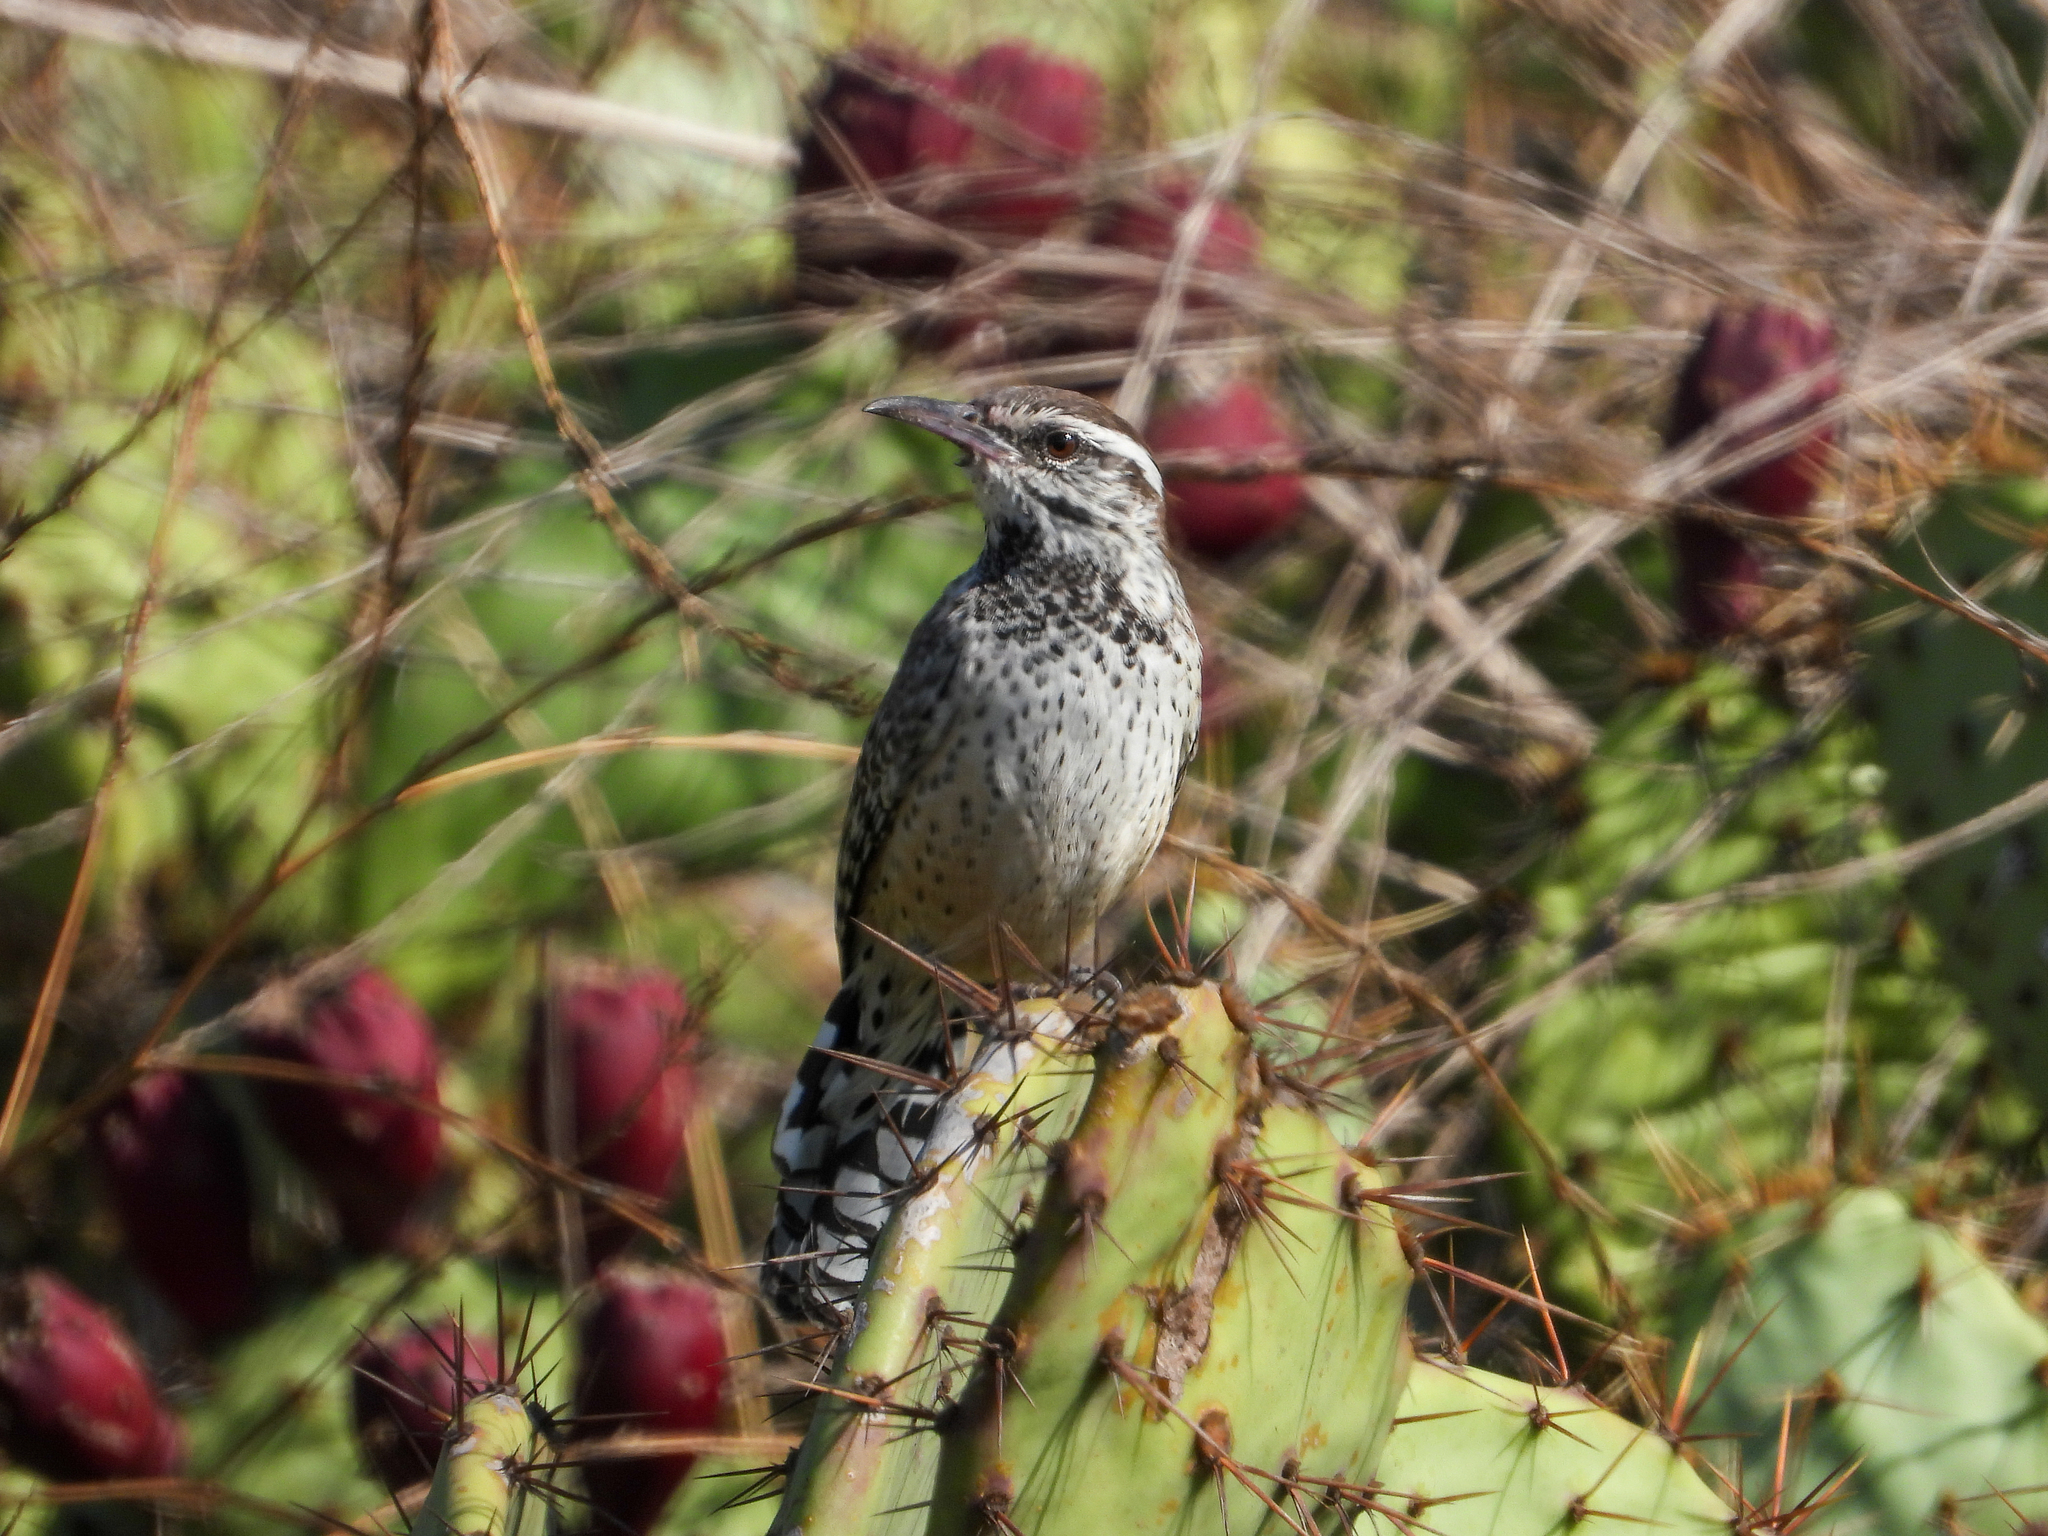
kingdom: Animalia
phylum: Chordata
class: Aves
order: Passeriformes
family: Troglodytidae
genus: Campylorhynchus
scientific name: Campylorhynchus brunneicapillus
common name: Cactus wren
